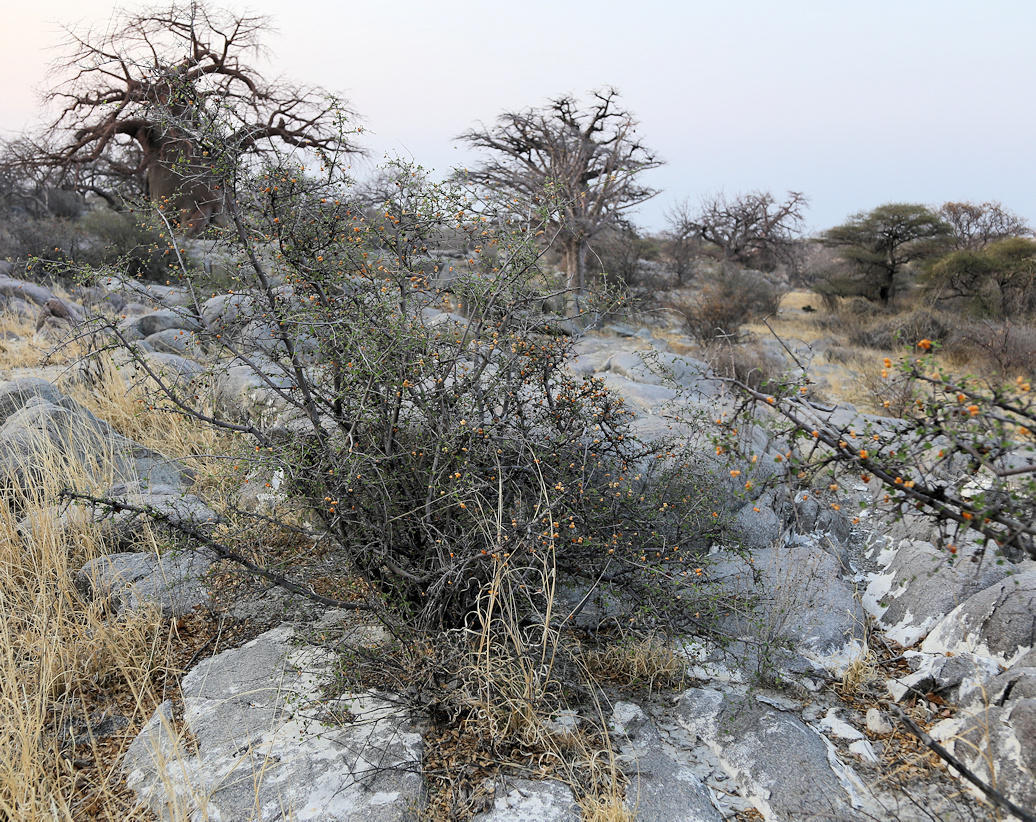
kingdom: Plantae
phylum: Tracheophyta
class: Magnoliopsida
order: Malvales
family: Malvaceae
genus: Grewia
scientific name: Grewia tenax
